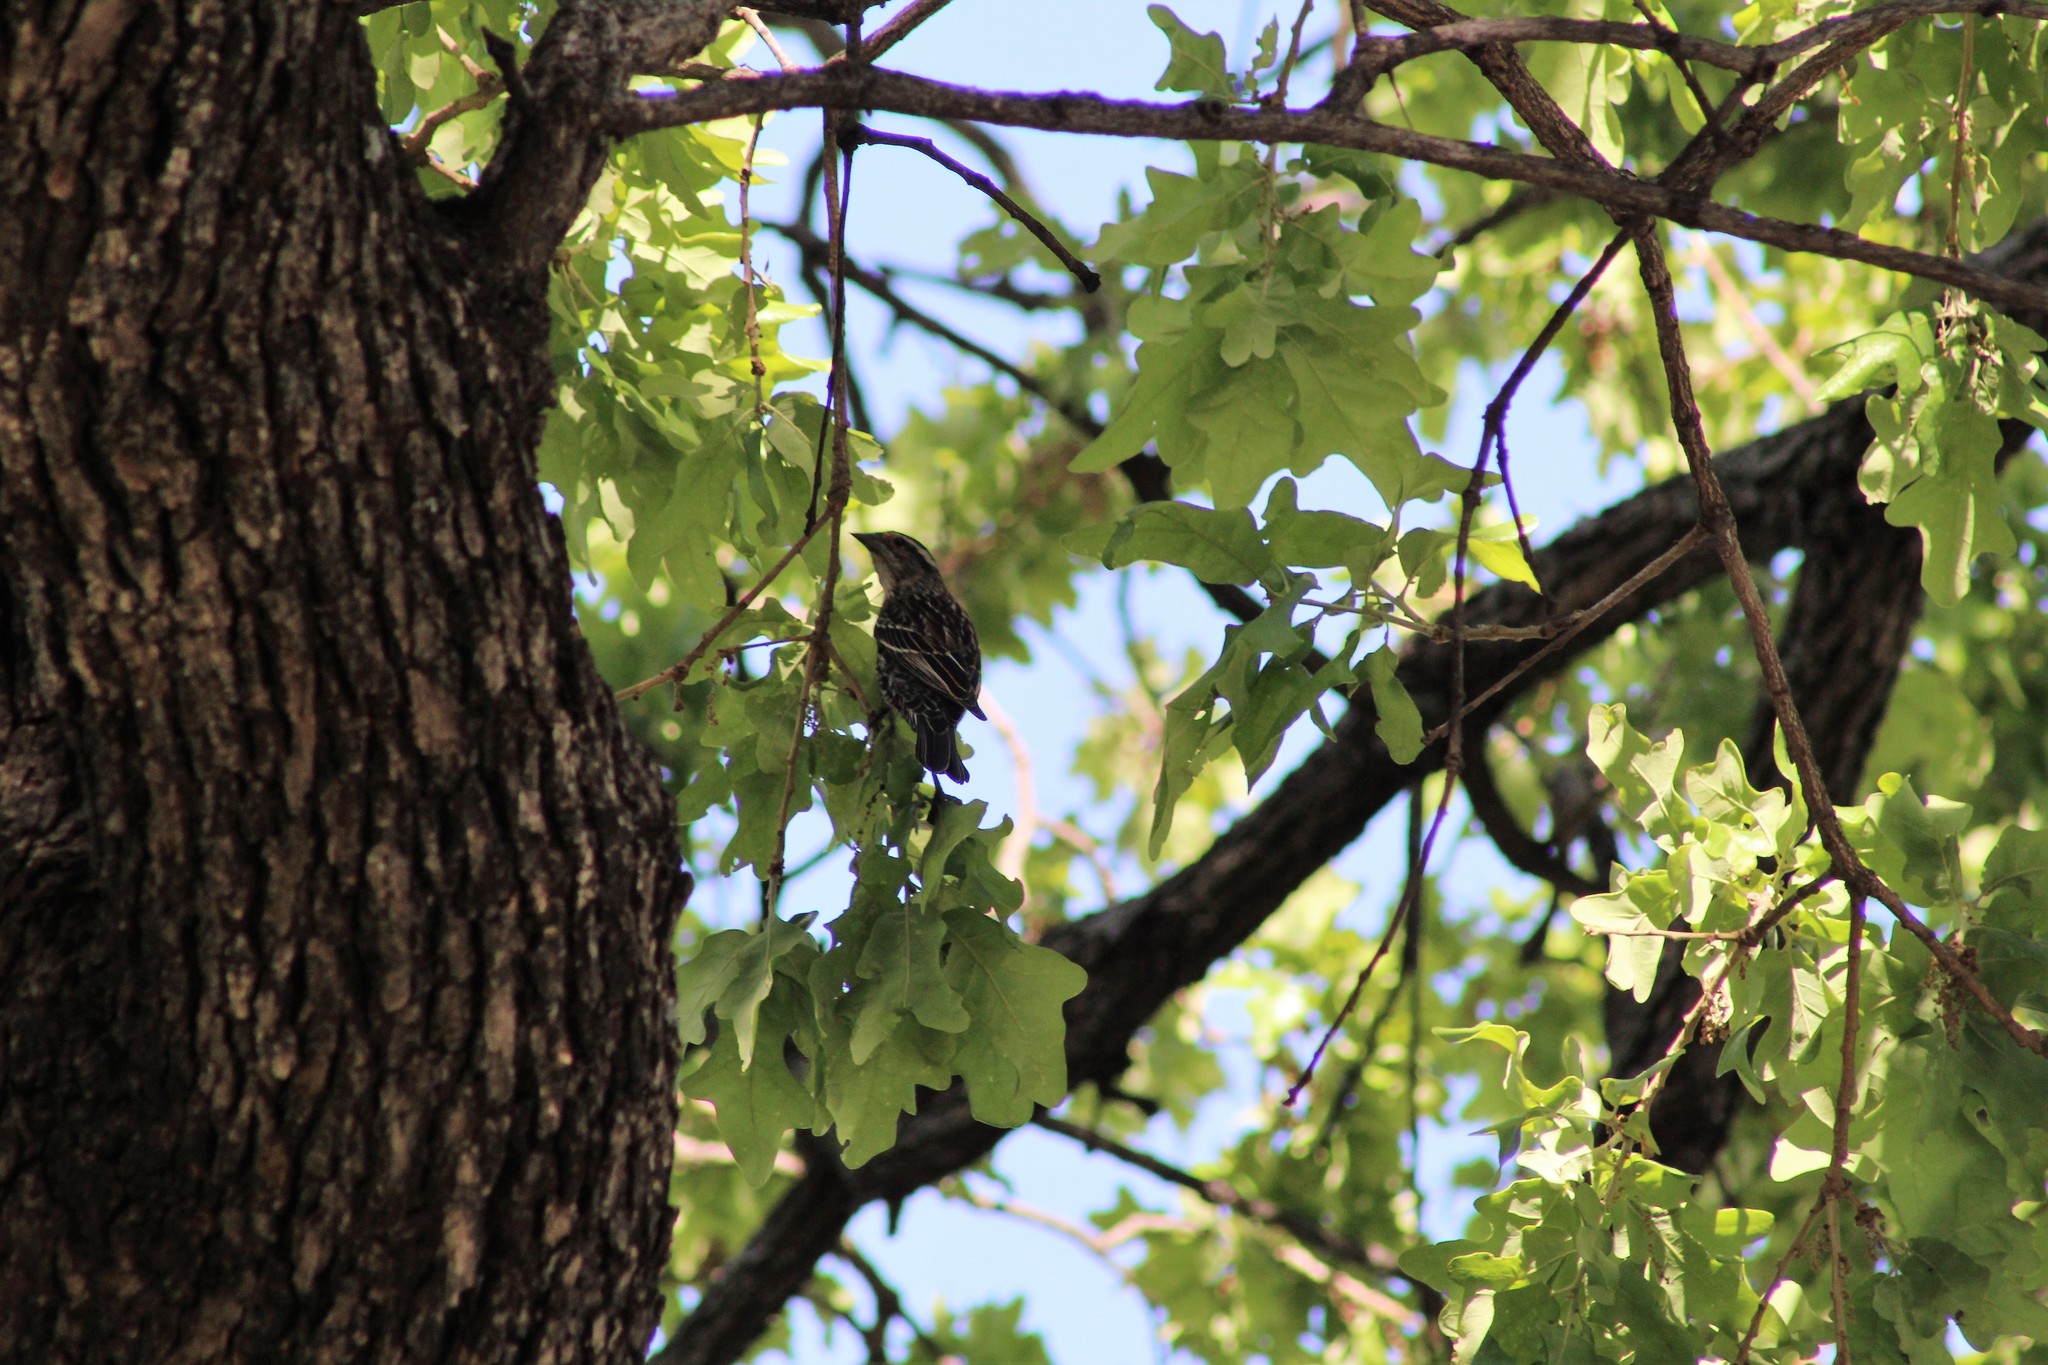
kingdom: Animalia
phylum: Chordata
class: Aves
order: Passeriformes
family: Icteridae
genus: Agelaius
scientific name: Agelaius phoeniceus
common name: Red-winged blackbird
